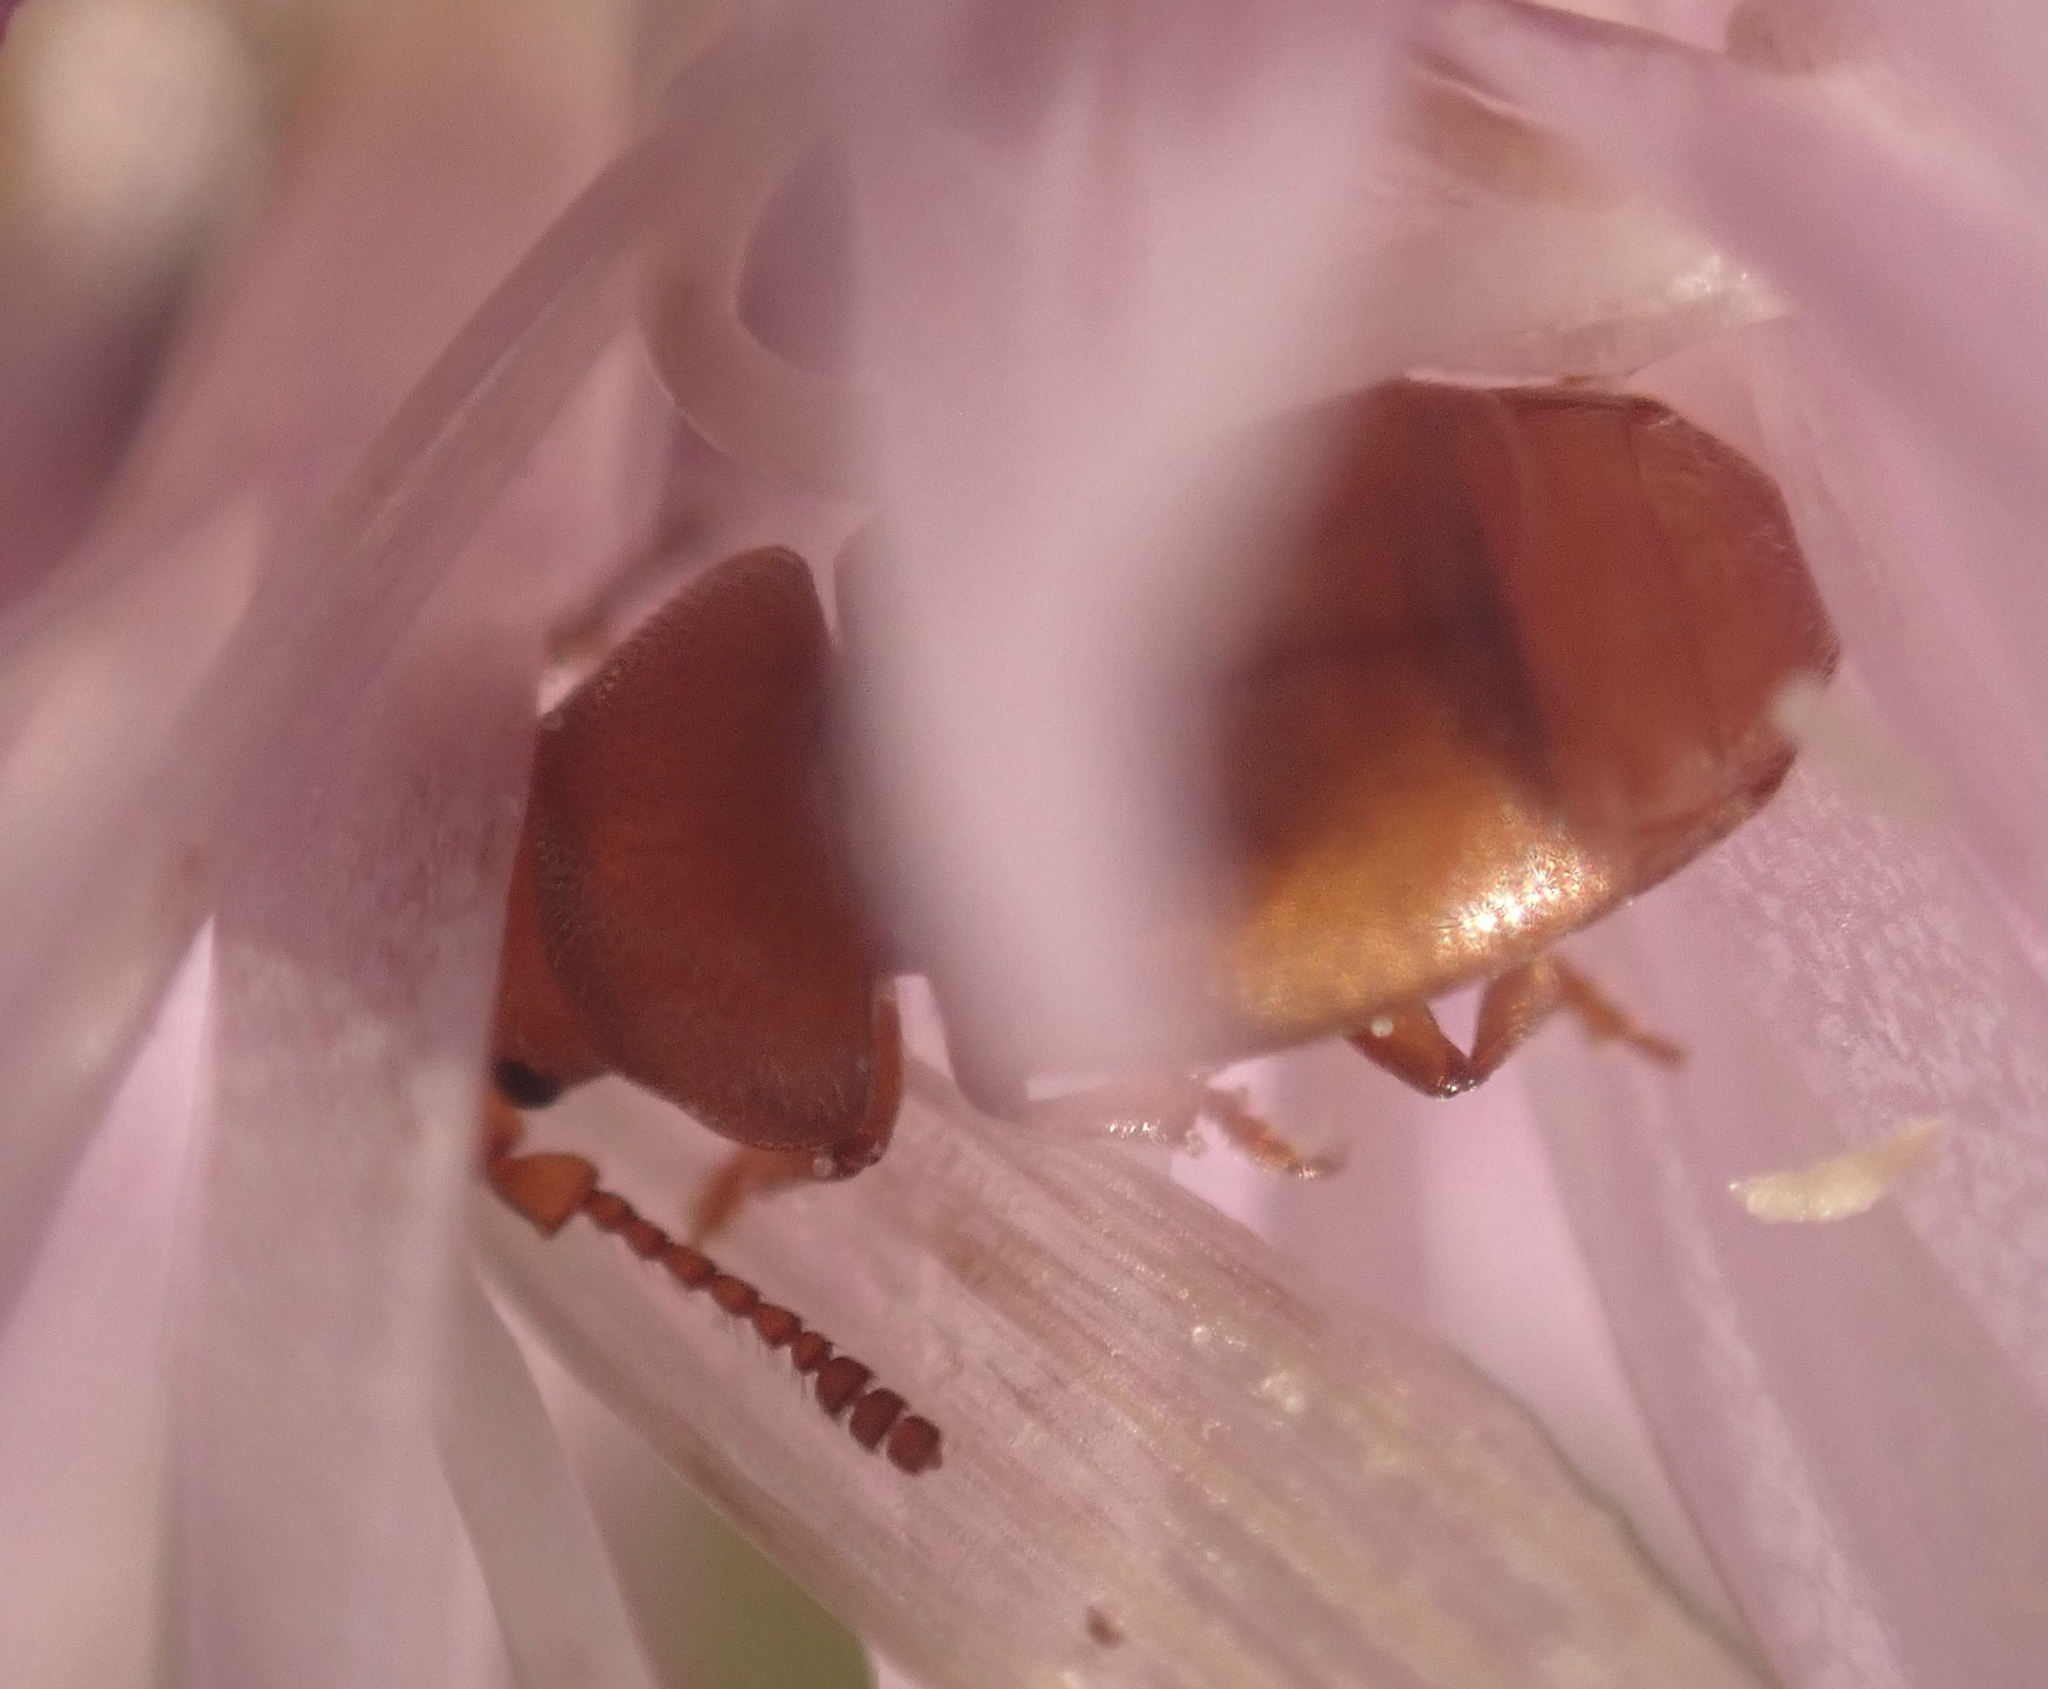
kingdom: Animalia
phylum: Arthropoda
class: Insecta
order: Coleoptera
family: Kateretidae
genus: Kateretes
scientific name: Kateretes pedicularius
